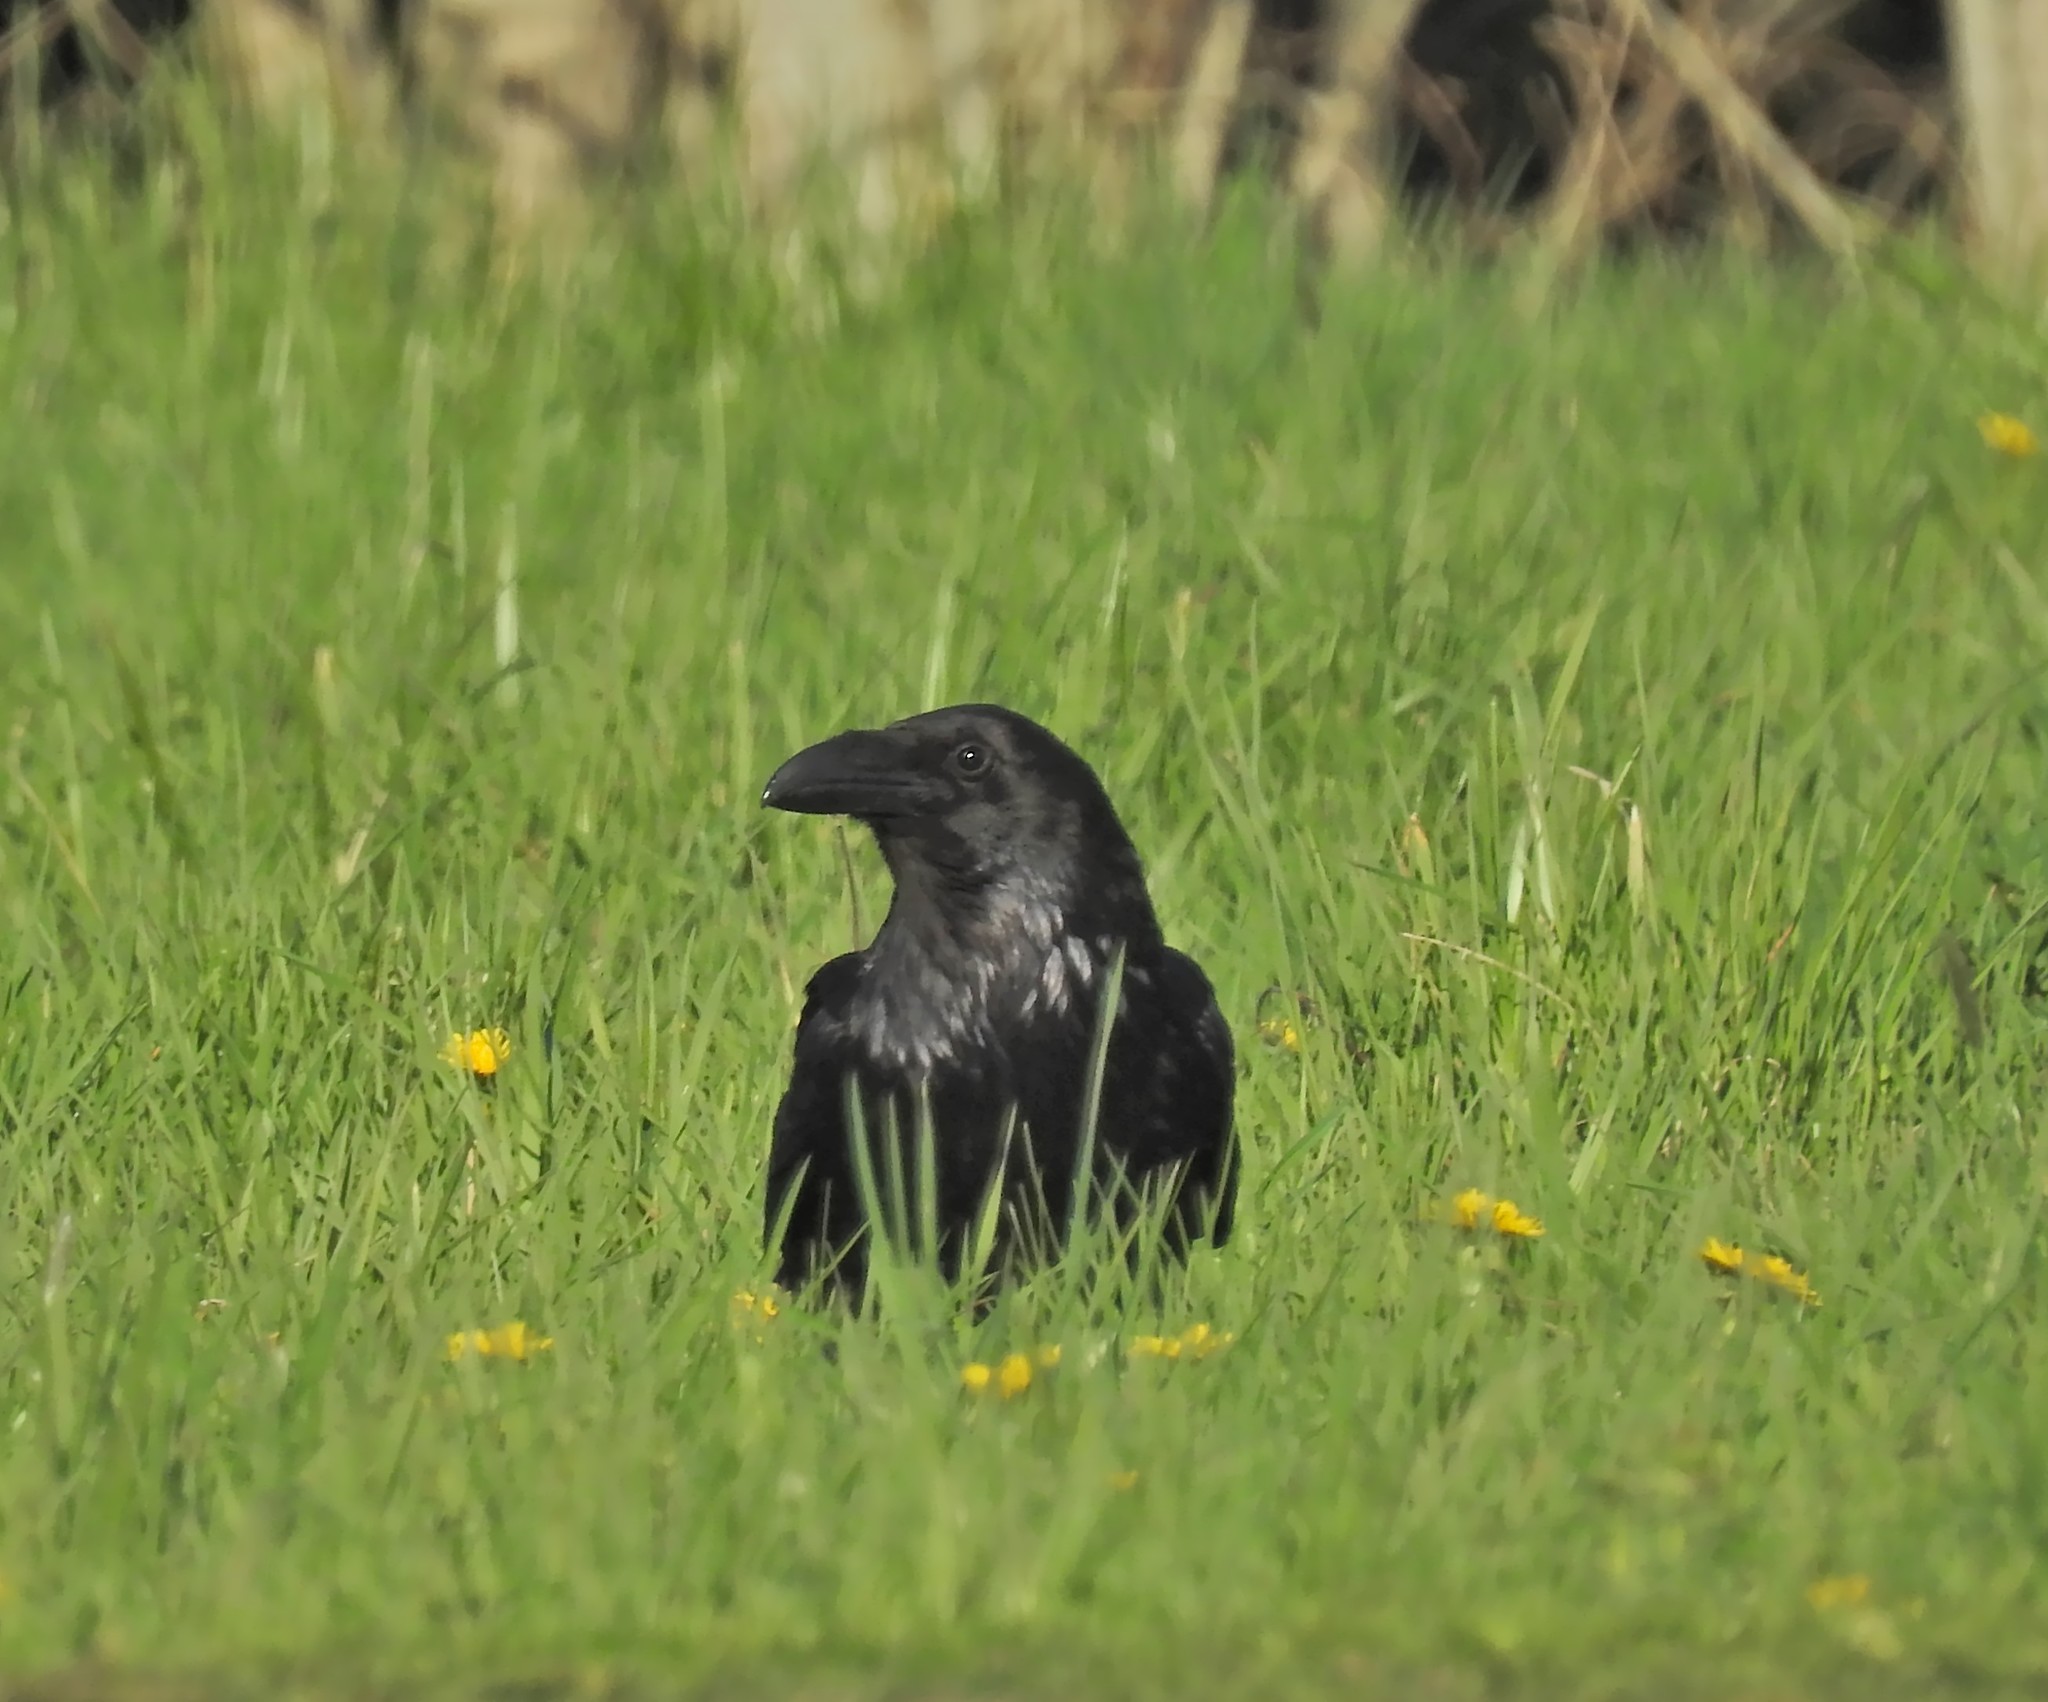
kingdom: Animalia
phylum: Chordata
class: Aves
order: Passeriformes
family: Corvidae
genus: Corvus
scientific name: Corvus corax
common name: Common raven
